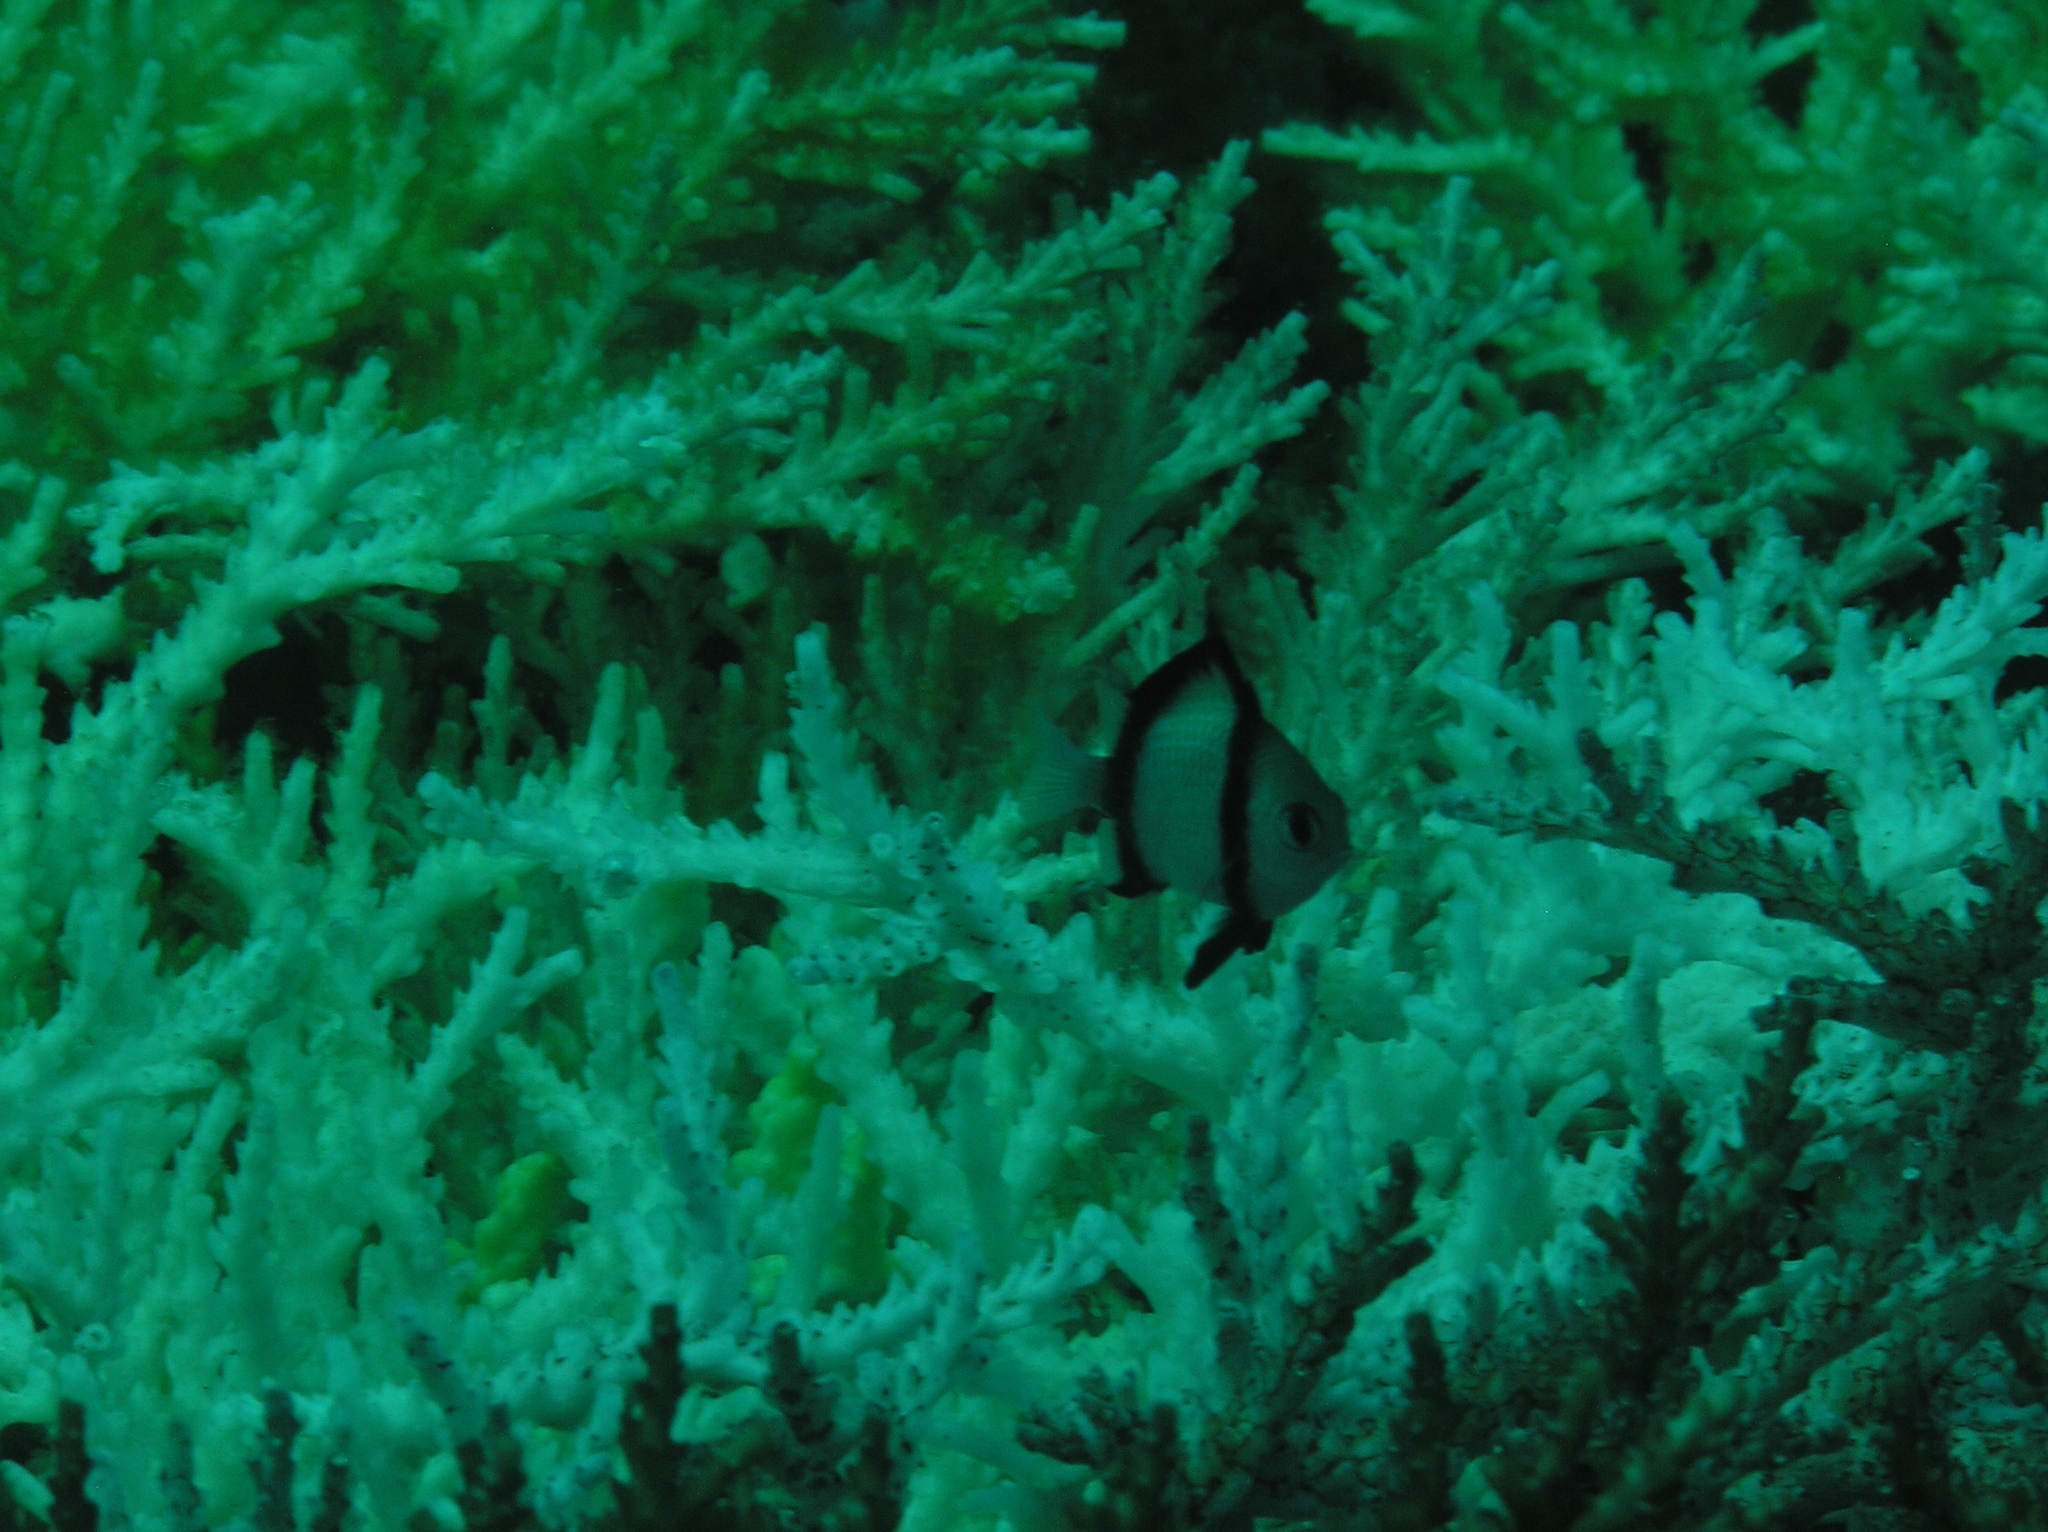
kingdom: Animalia
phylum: Chordata
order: Perciformes
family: Pomacentridae
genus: Dascyllus
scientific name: Dascyllus reticulatus
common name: Reticulated dascyllus
